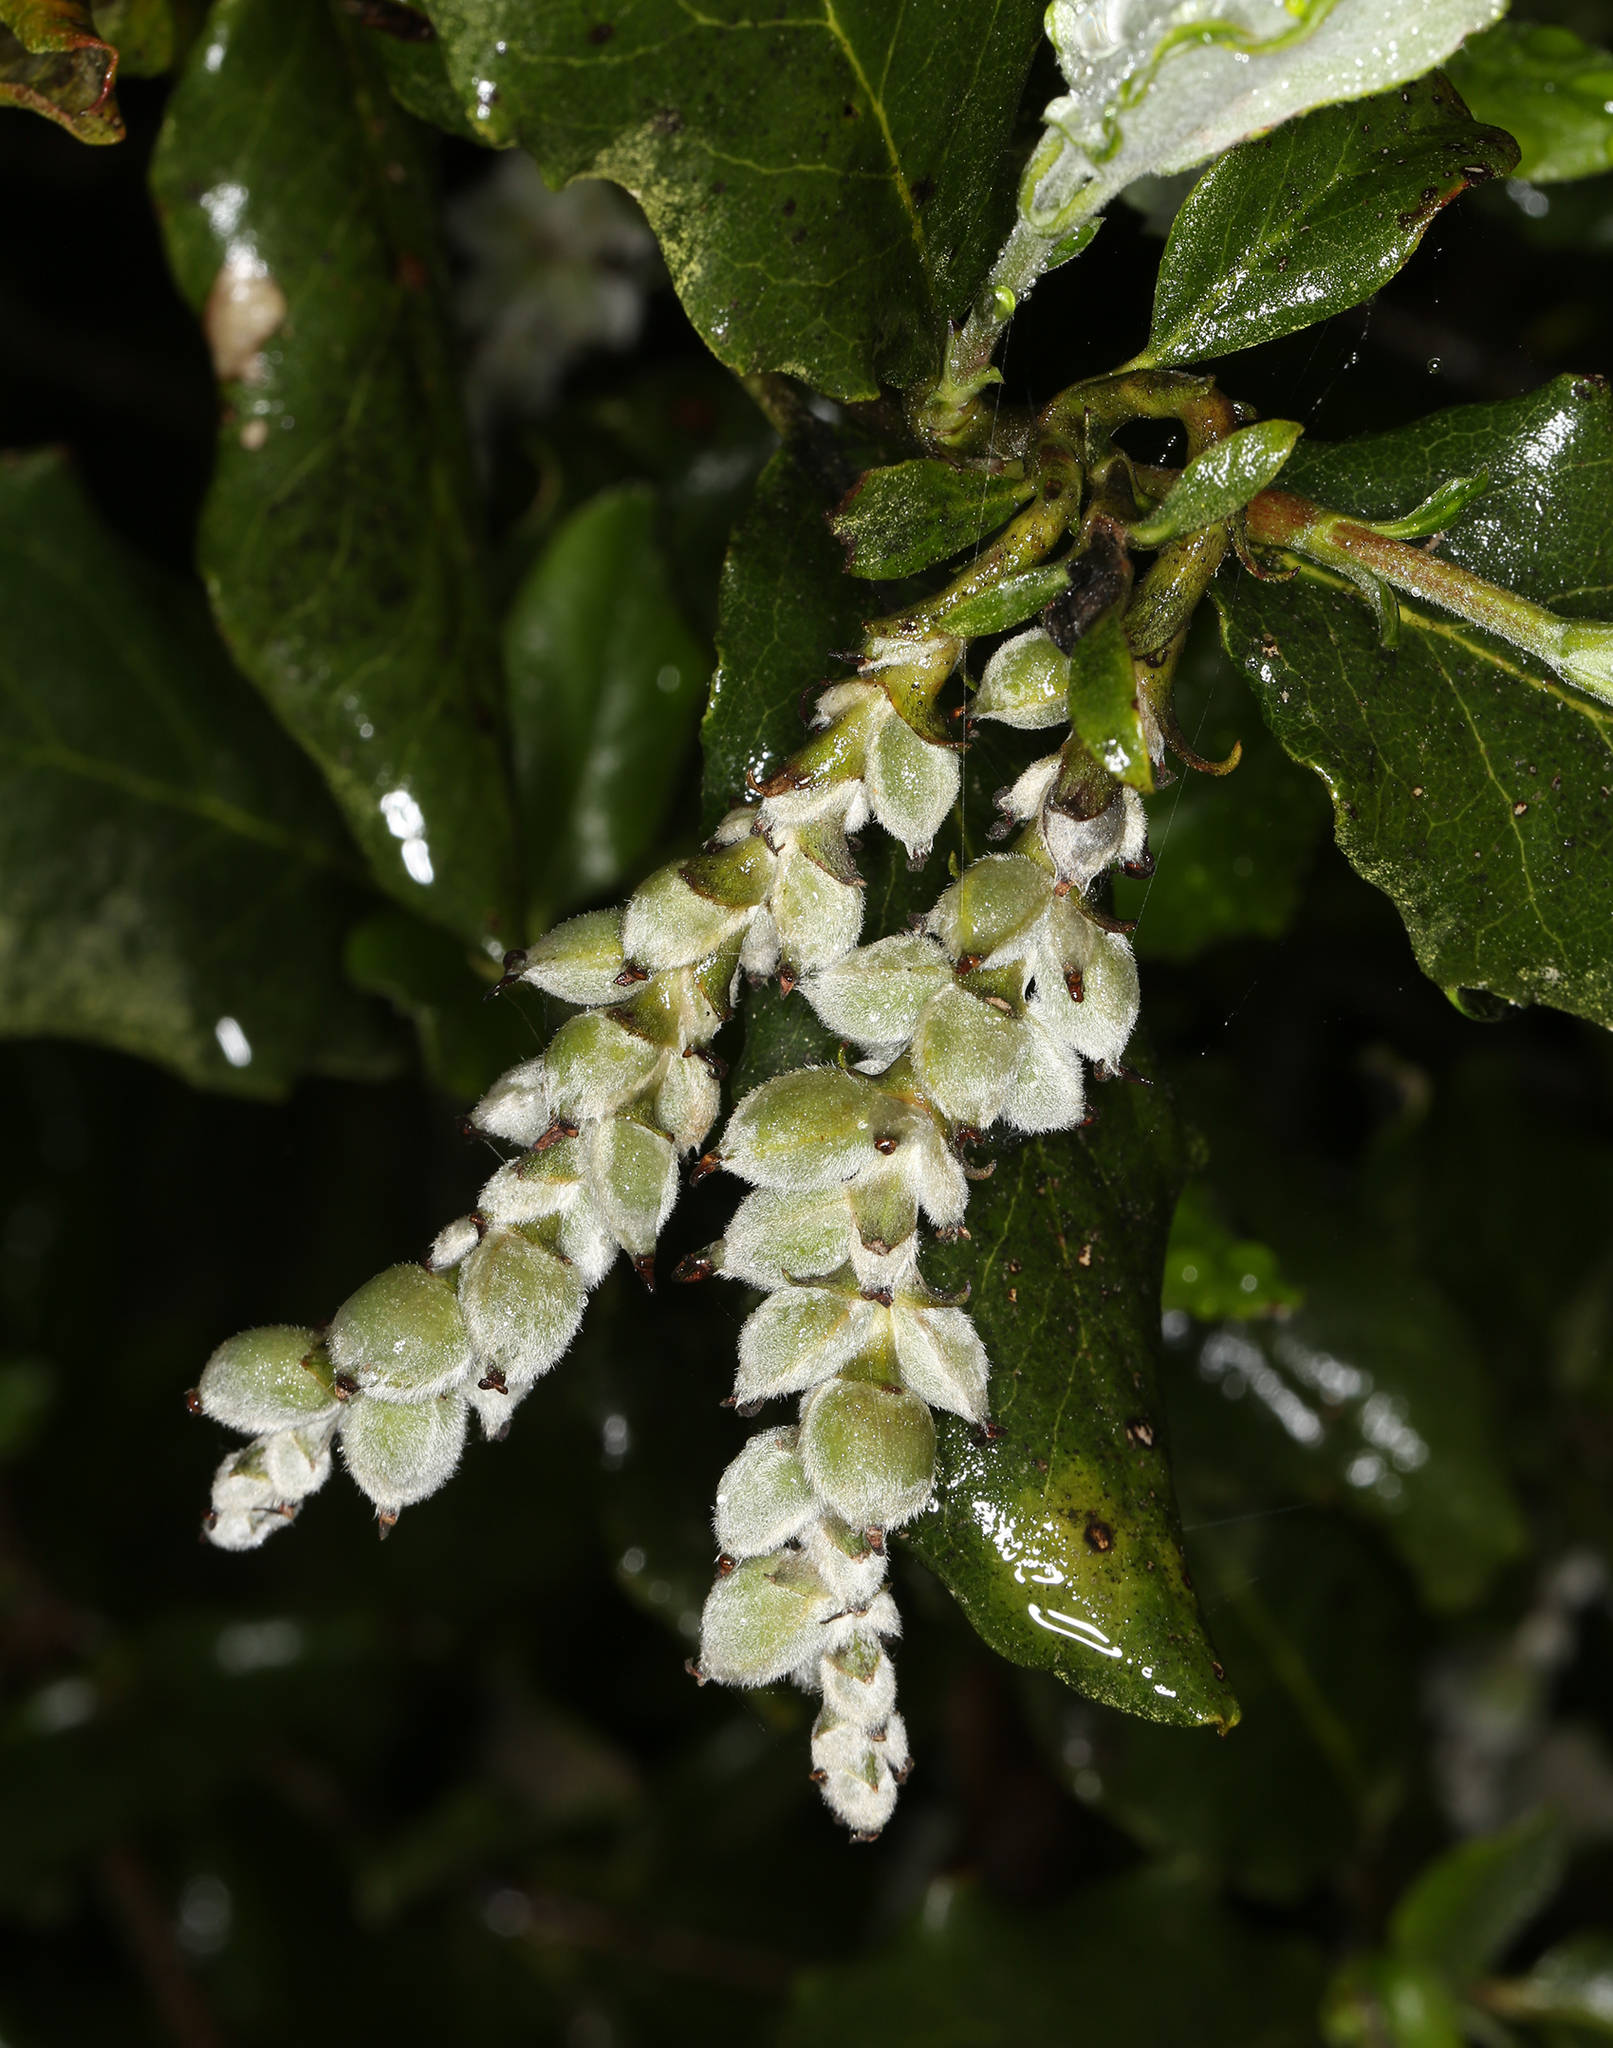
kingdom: Plantae
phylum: Tracheophyta
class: Magnoliopsida
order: Garryales
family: Garryaceae
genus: Garrya
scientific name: Garrya elliptica
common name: Silk-tassel
